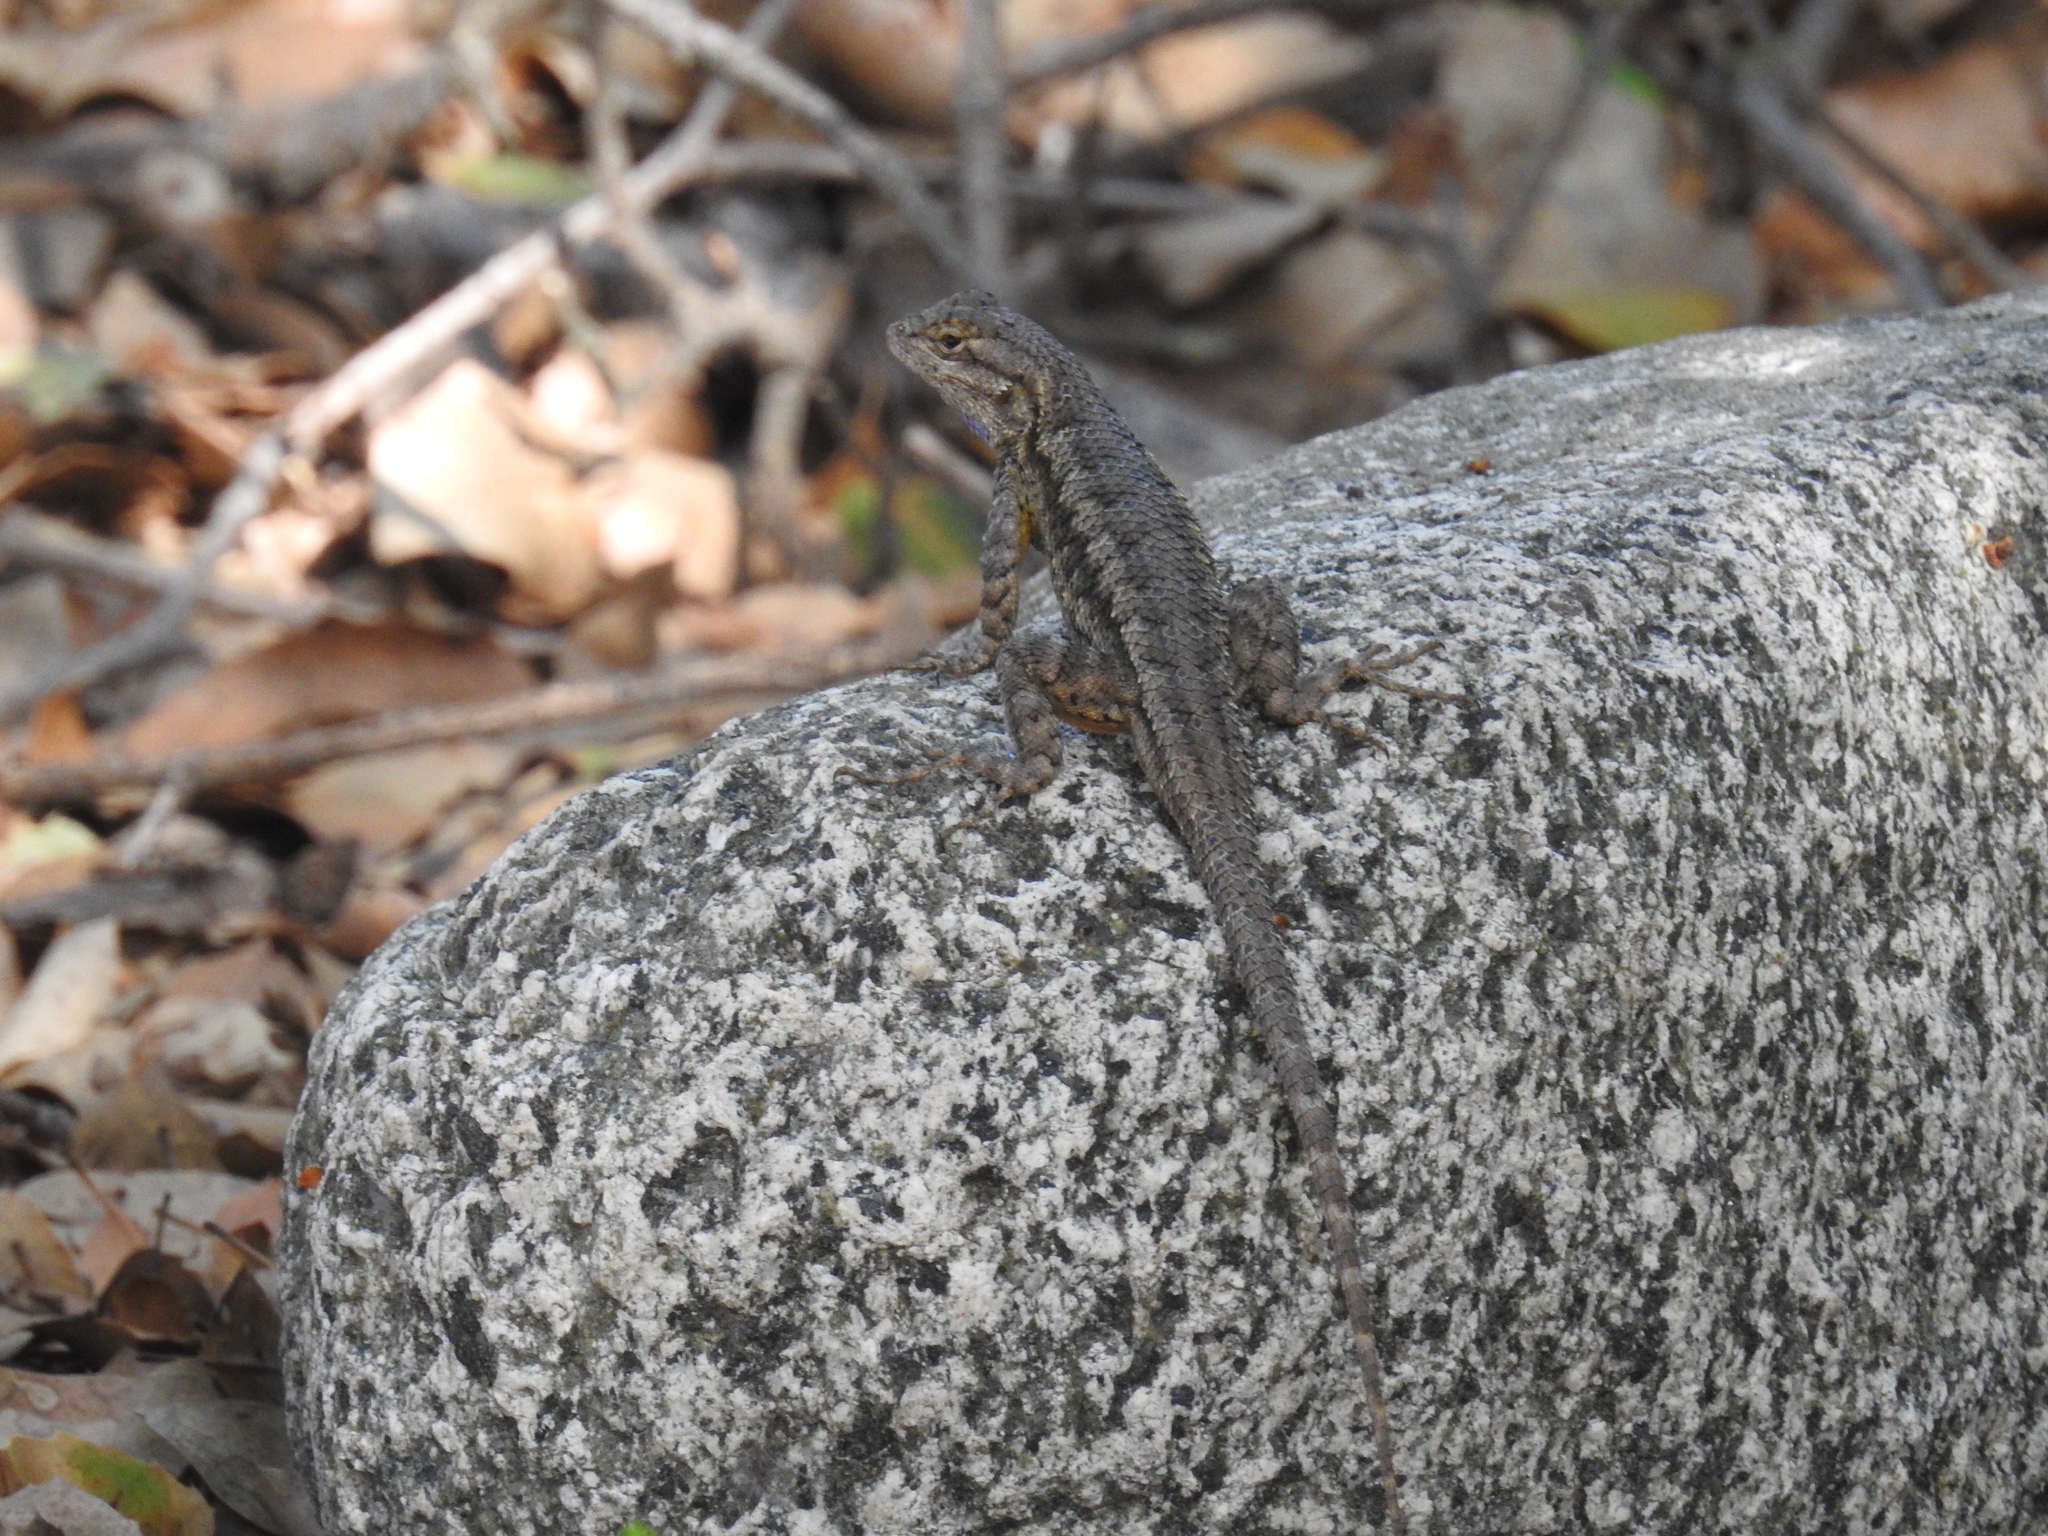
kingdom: Animalia
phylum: Chordata
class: Squamata
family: Phrynosomatidae
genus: Sceloporus
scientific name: Sceloporus occidentalis
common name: Western fence lizard
